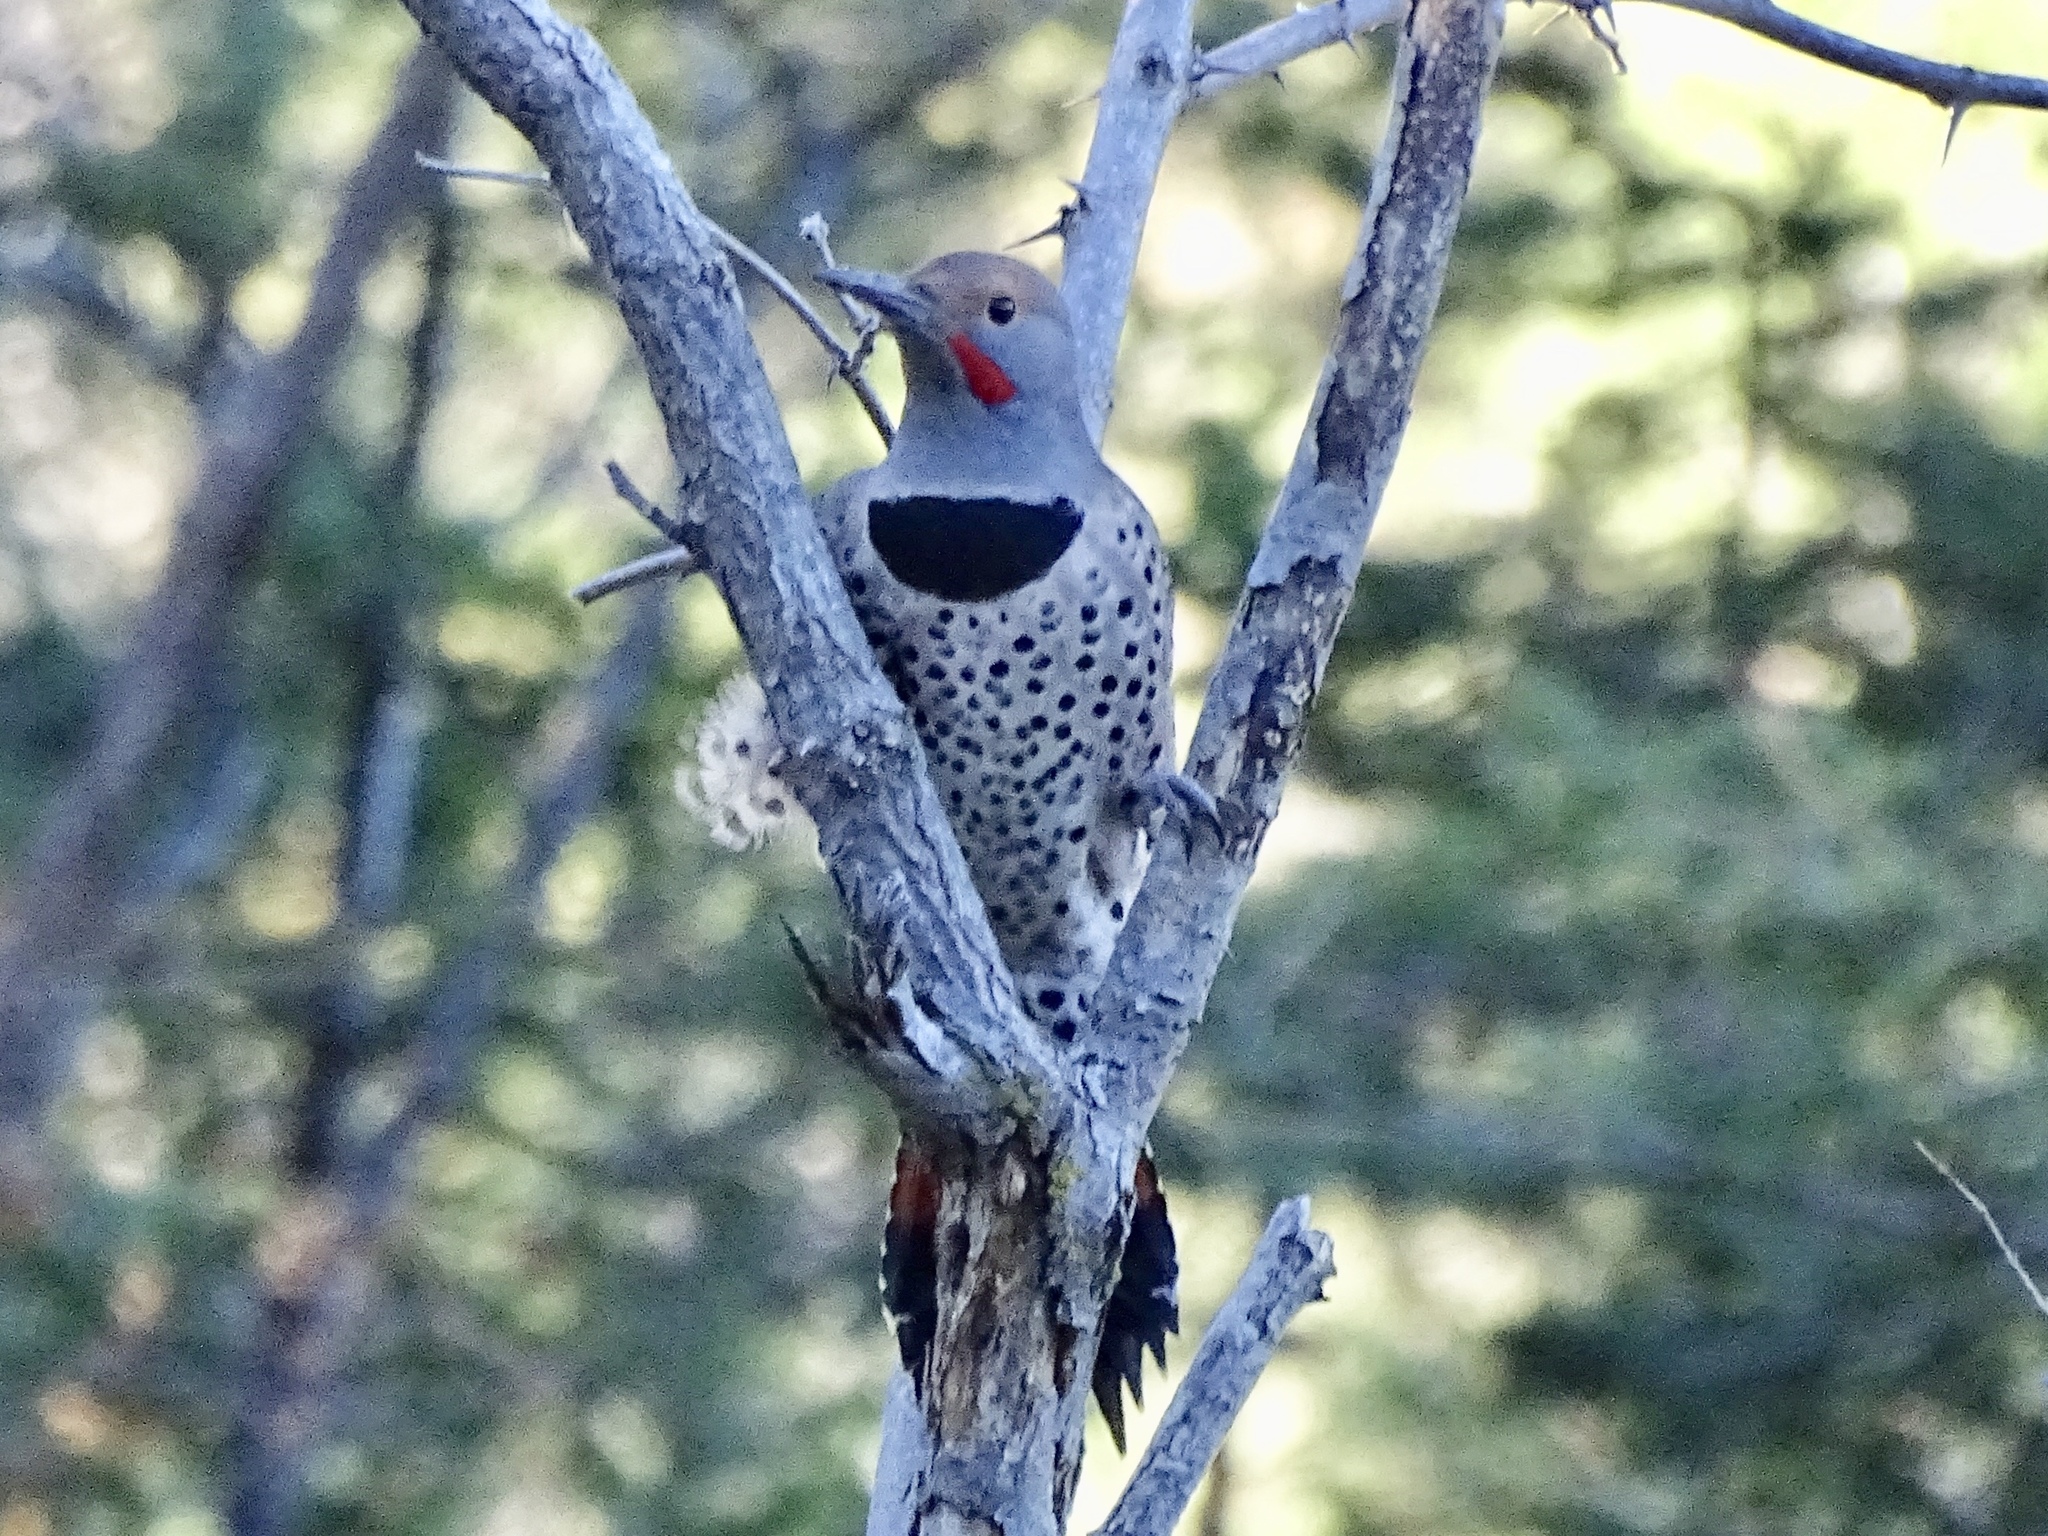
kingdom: Animalia
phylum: Chordata
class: Aves
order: Piciformes
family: Picidae
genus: Colaptes
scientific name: Colaptes auratus
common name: Northern flicker
